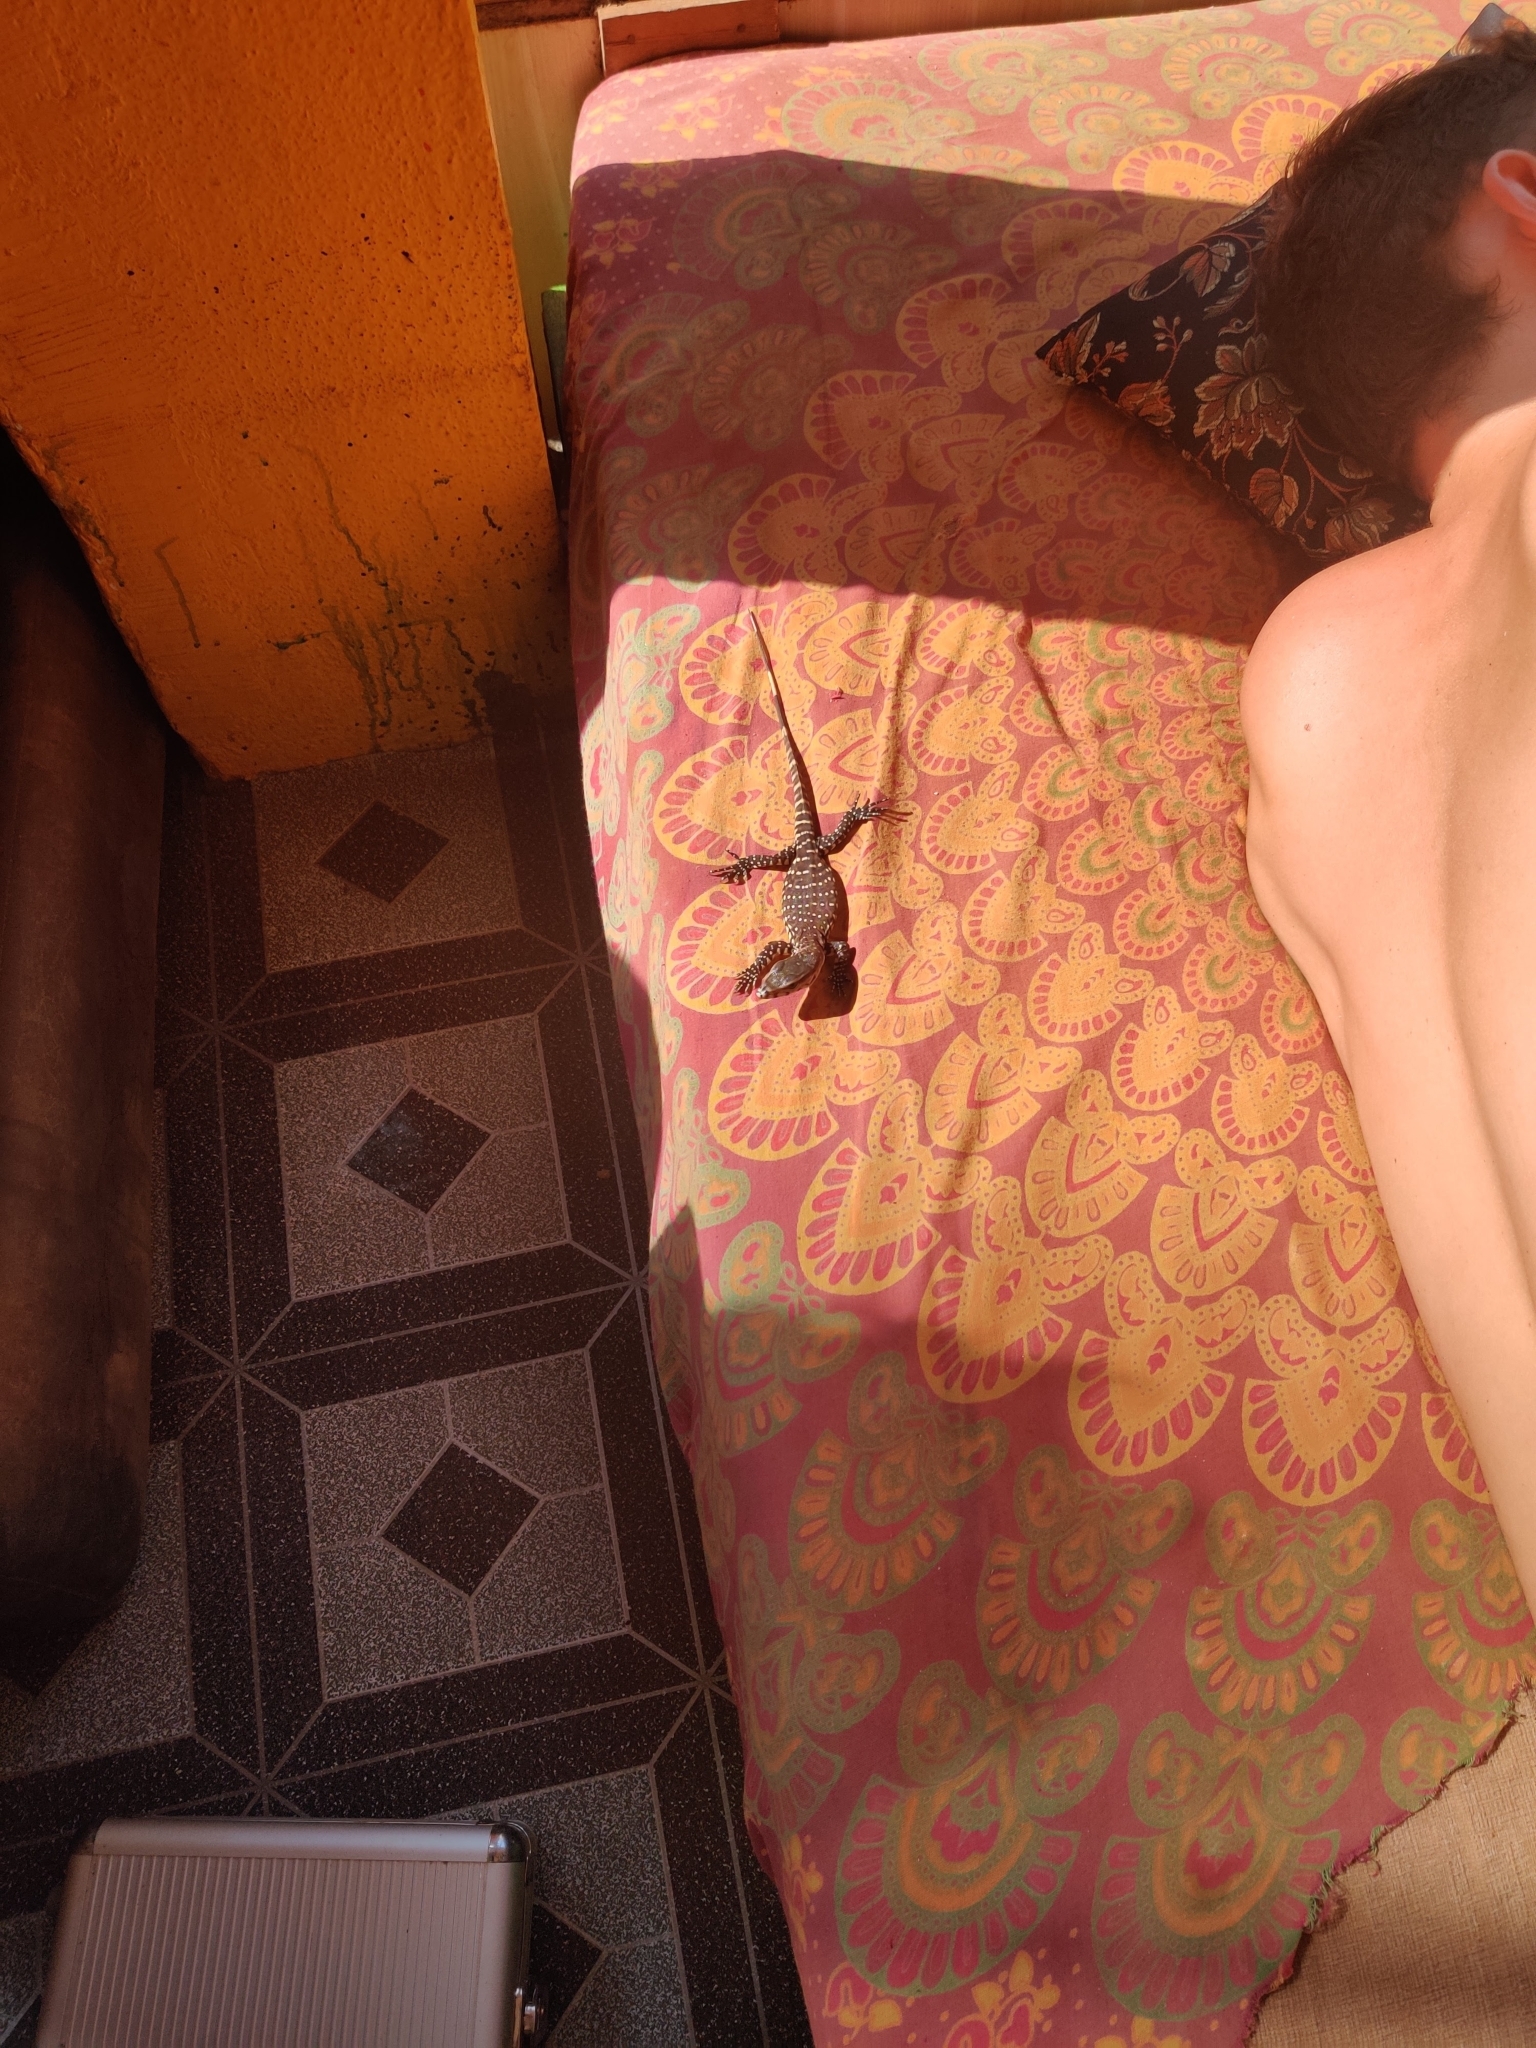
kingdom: Animalia
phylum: Chordata
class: Squamata
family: Varanidae
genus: Varanus
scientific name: Varanus bengalensis
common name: Bengal monitor
